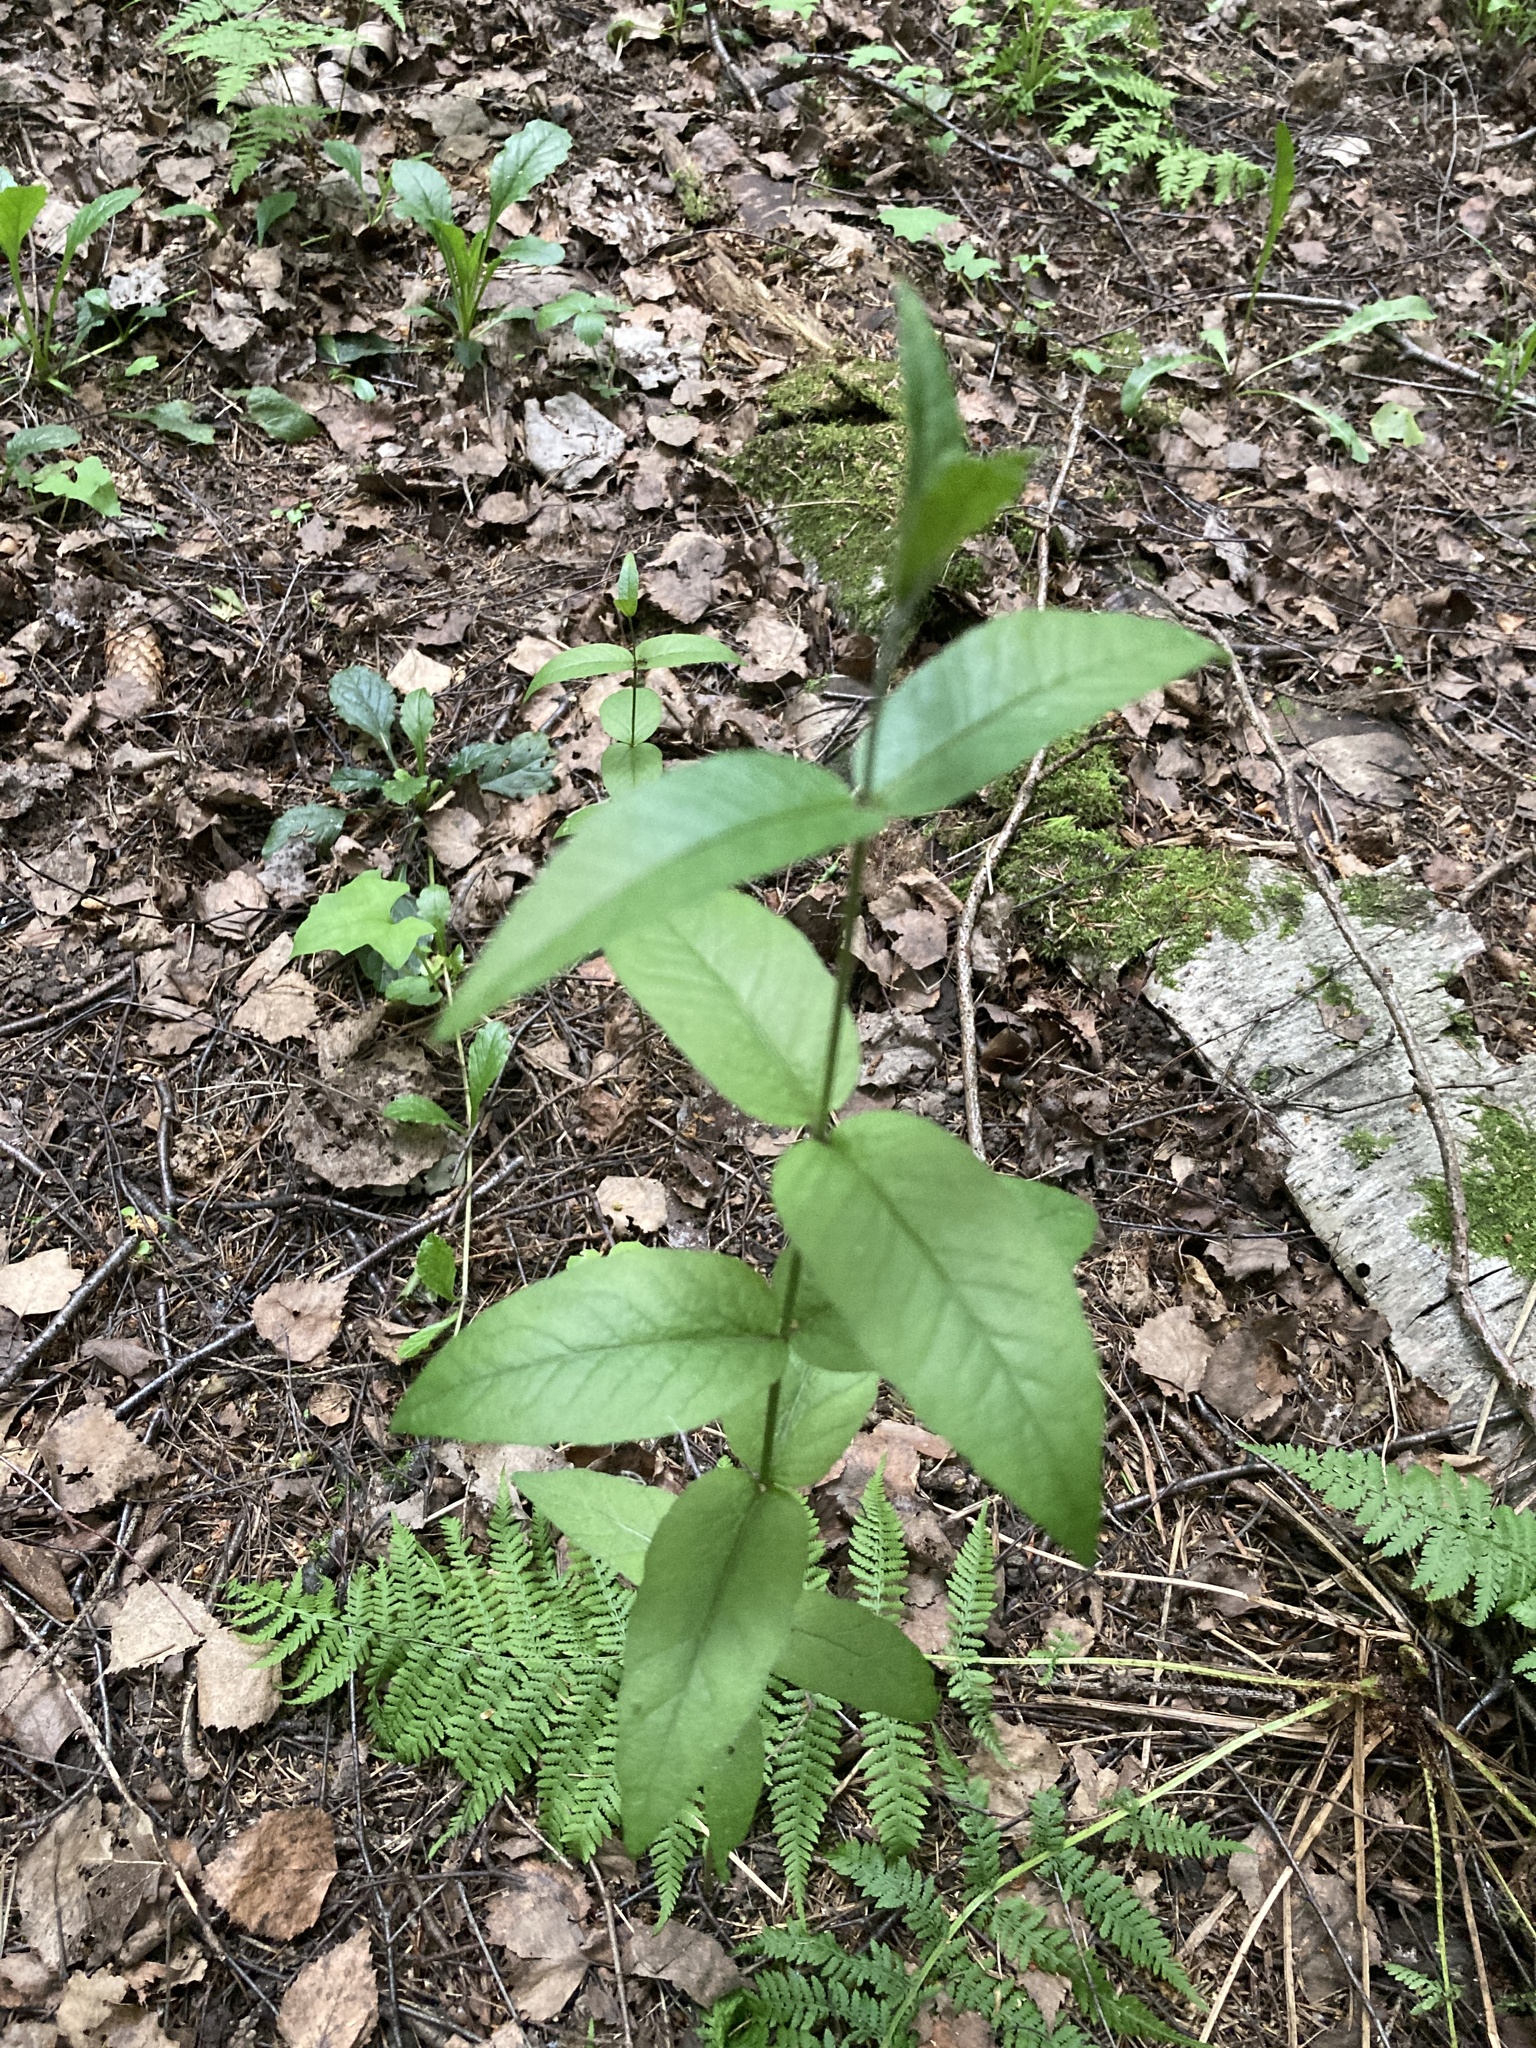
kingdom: Plantae
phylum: Tracheophyta
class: Magnoliopsida
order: Ericales
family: Primulaceae
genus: Lysimachia
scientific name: Lysimachia vulgaris
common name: Yellow loosestrife
